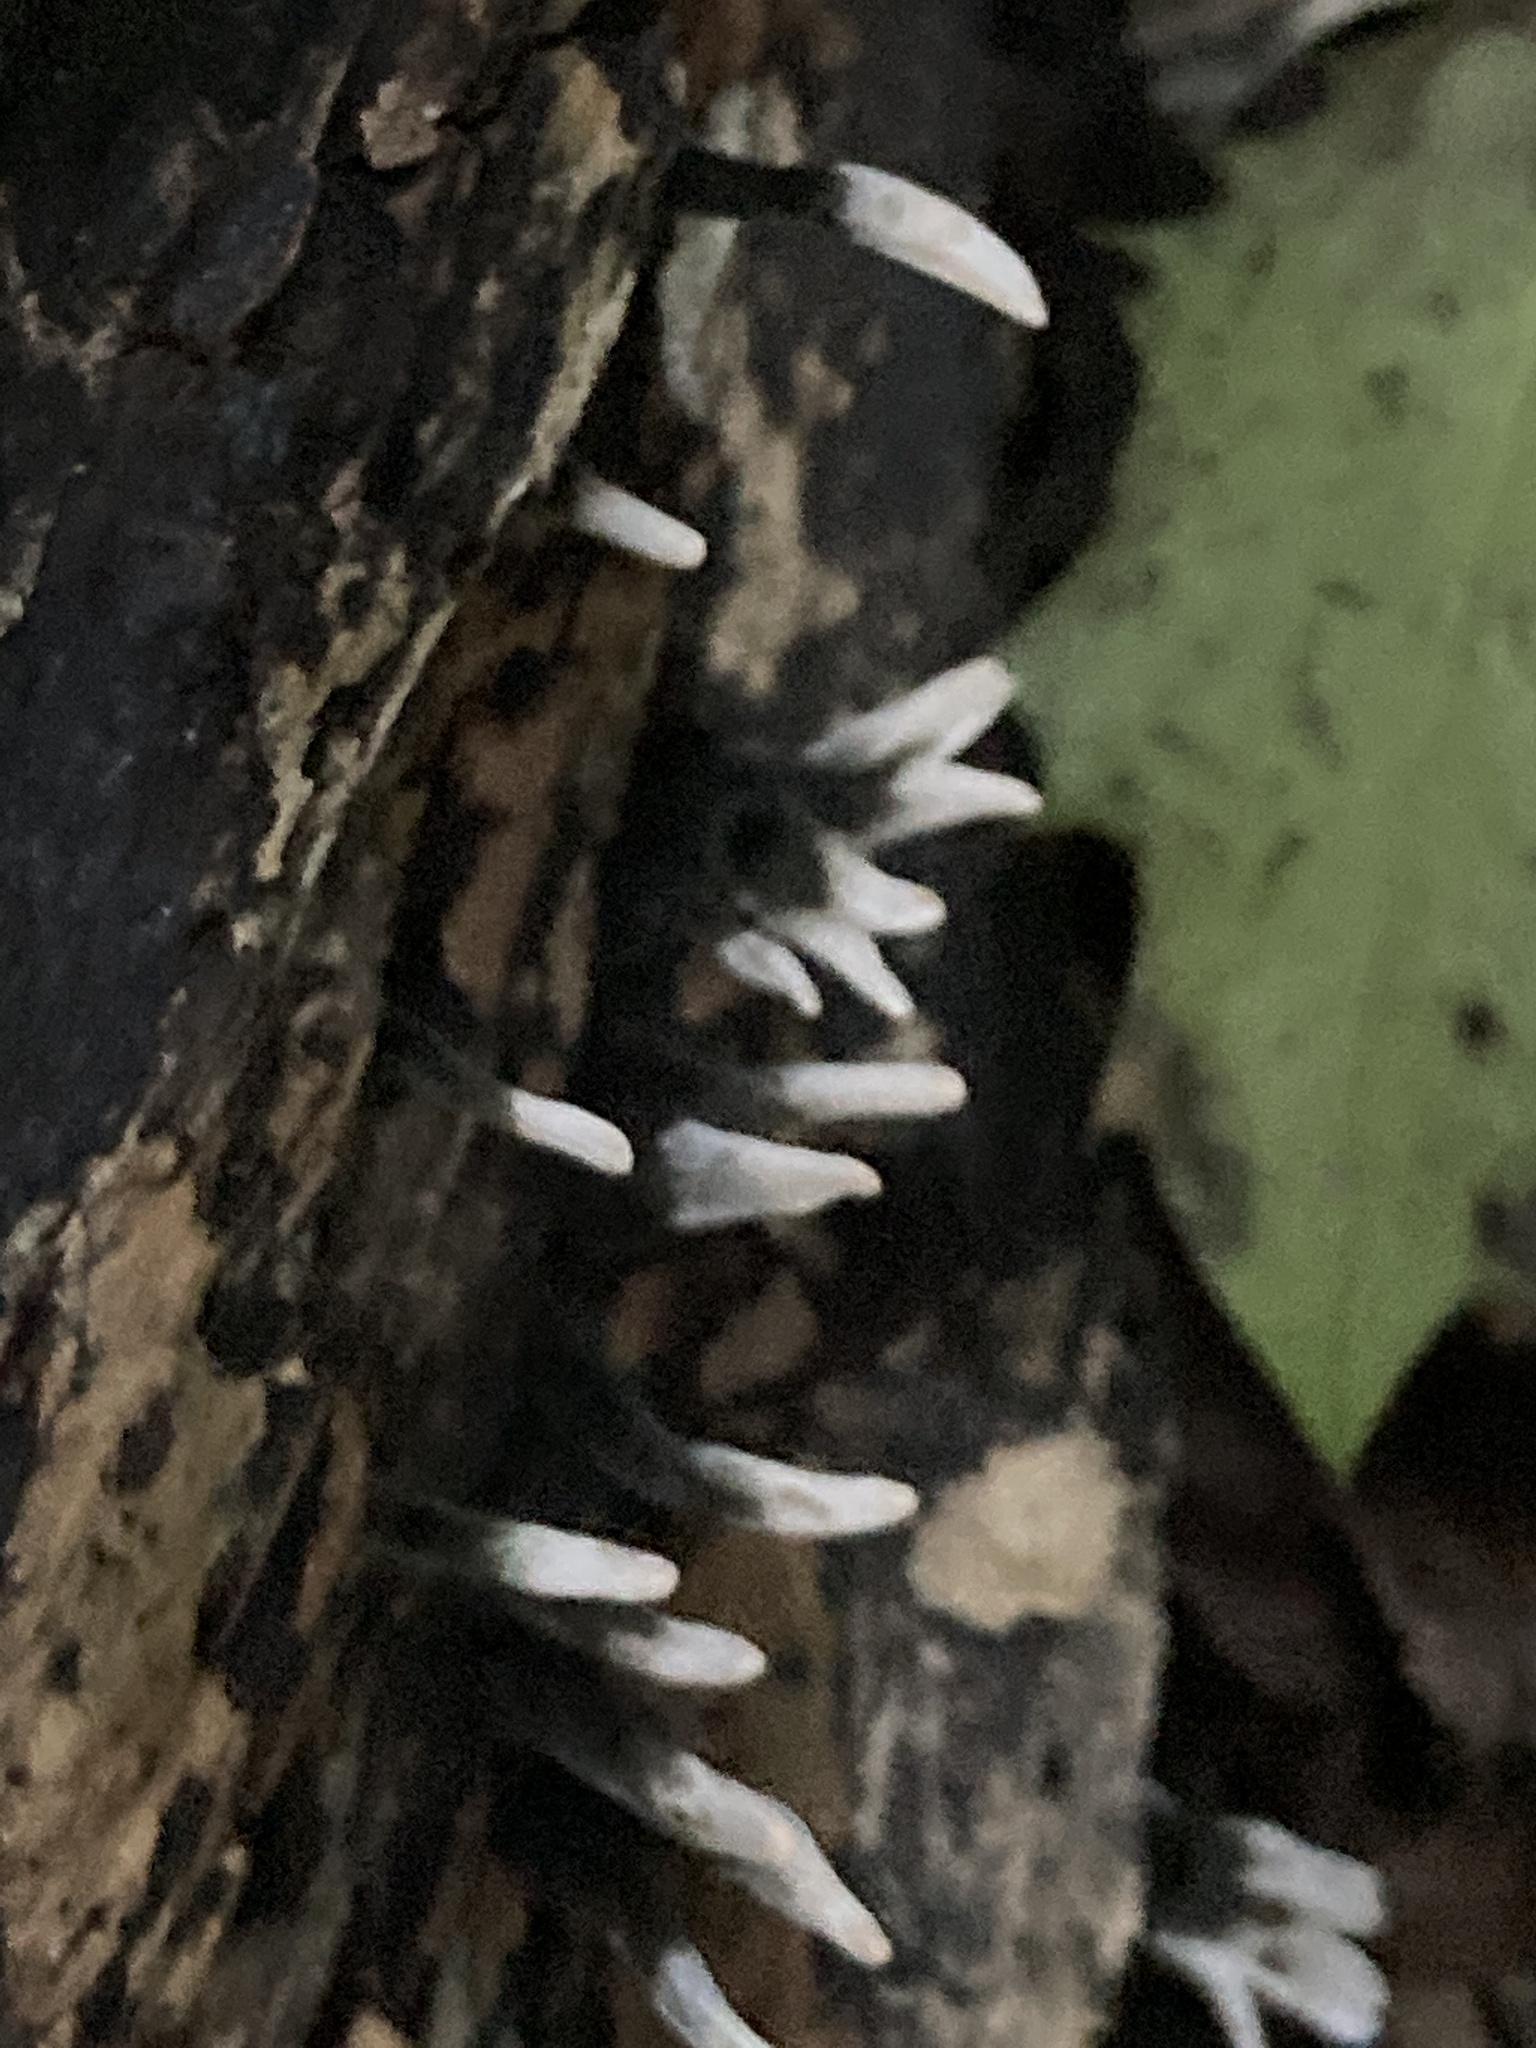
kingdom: Fungi
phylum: Ascomycota
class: Sordariomycetes
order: Xylariales
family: Xylariaceae
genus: Xylaria
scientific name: Xylaria hypoxylon
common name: Candle-snuff fungus
